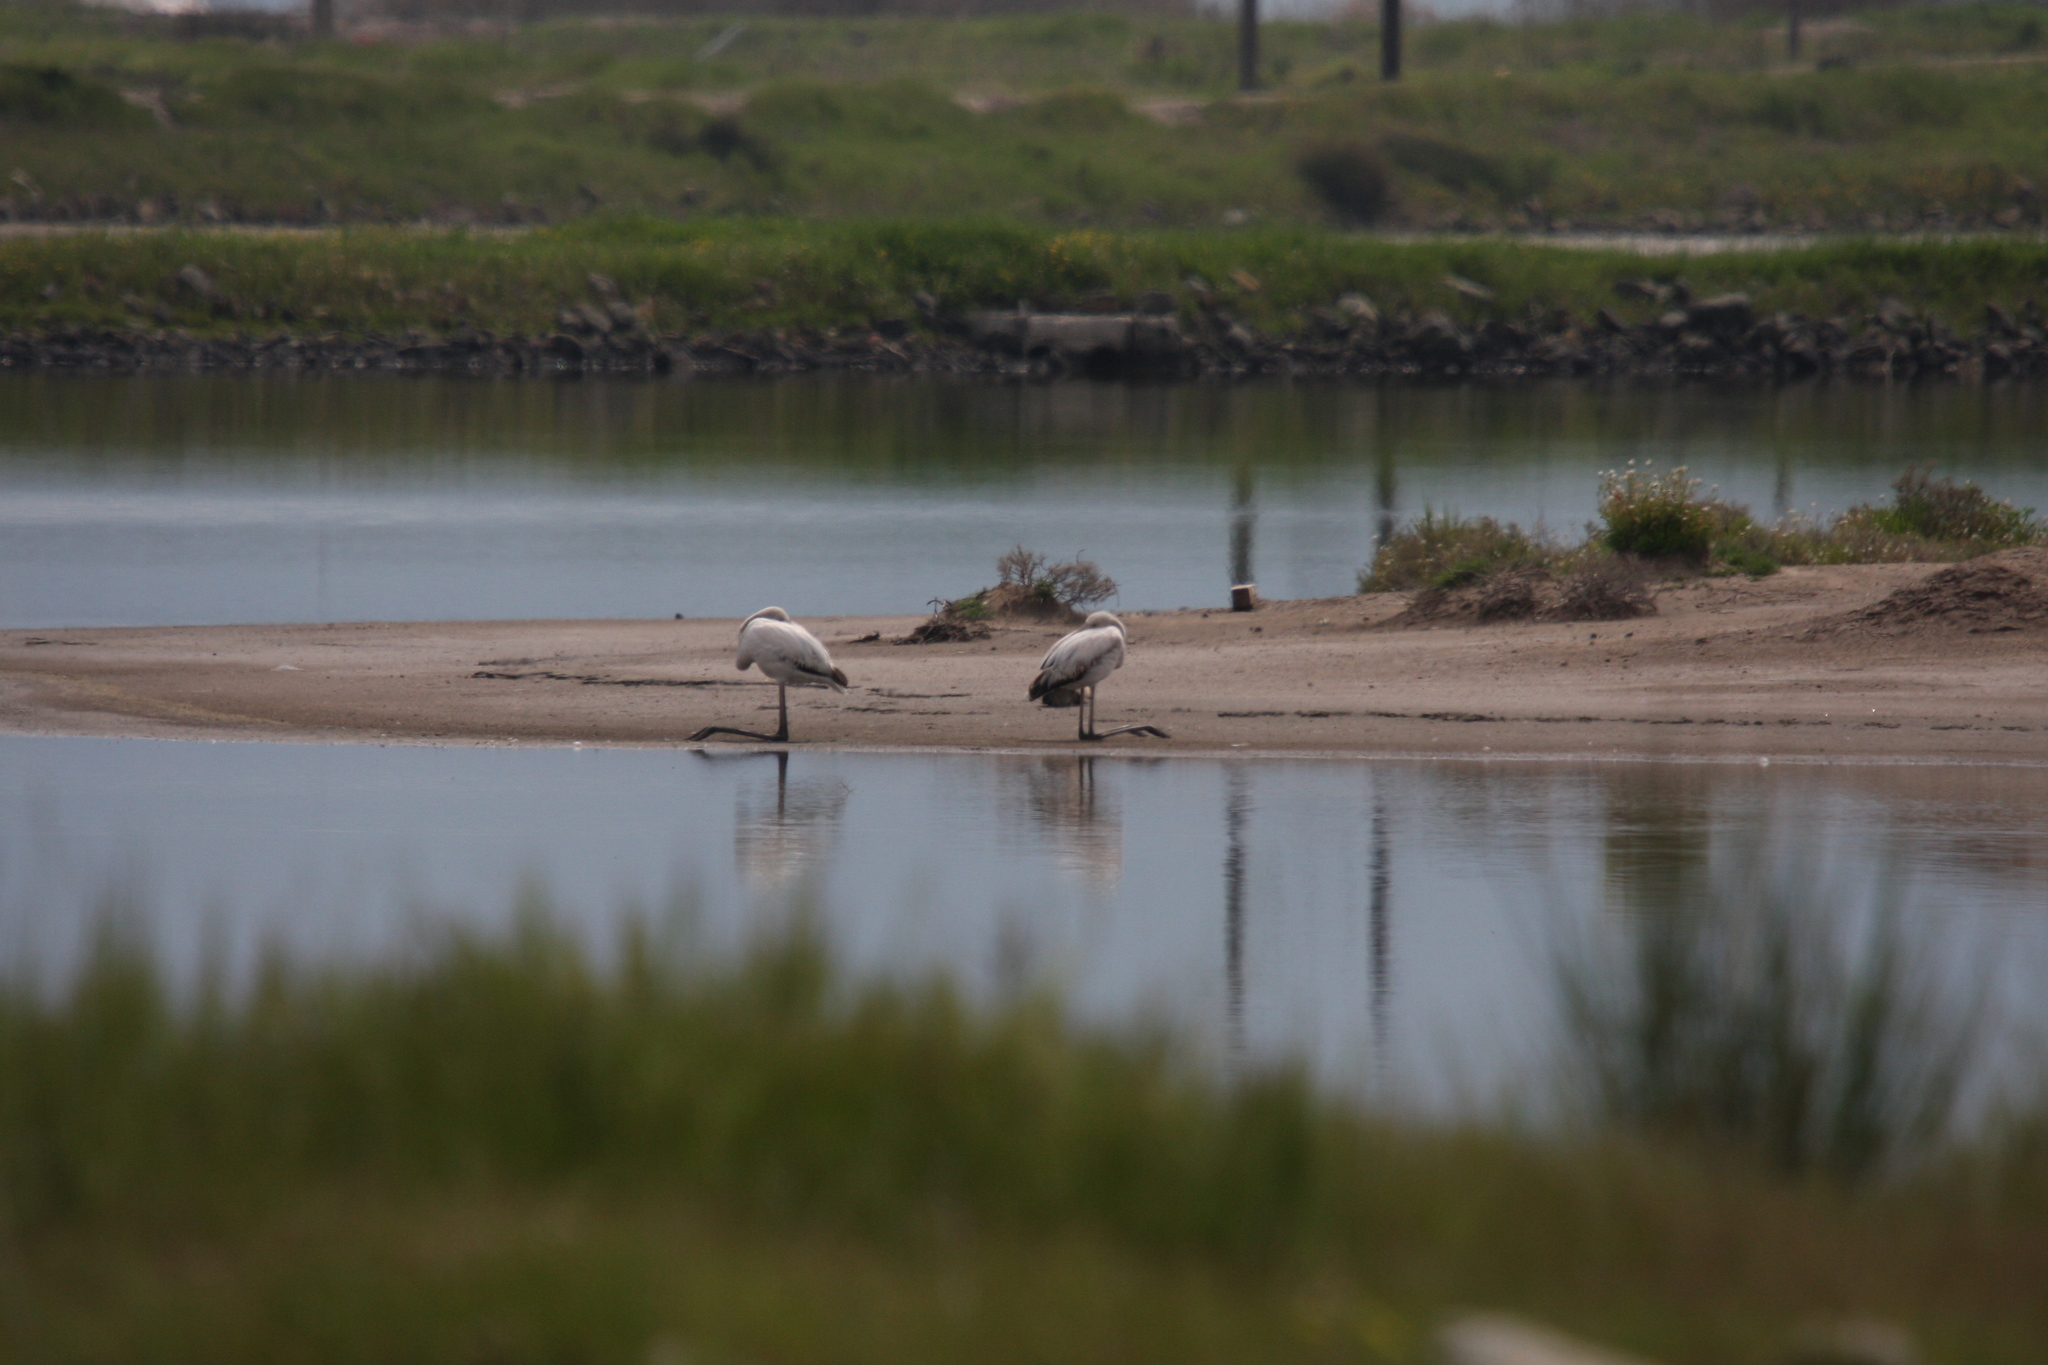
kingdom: Animalia
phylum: Chordata
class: Aves
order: Phoenicopteriformes
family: Phoenicopteridae
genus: Phoenicopterus
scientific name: Phoenicopterus roseus
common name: Greater flamingo
